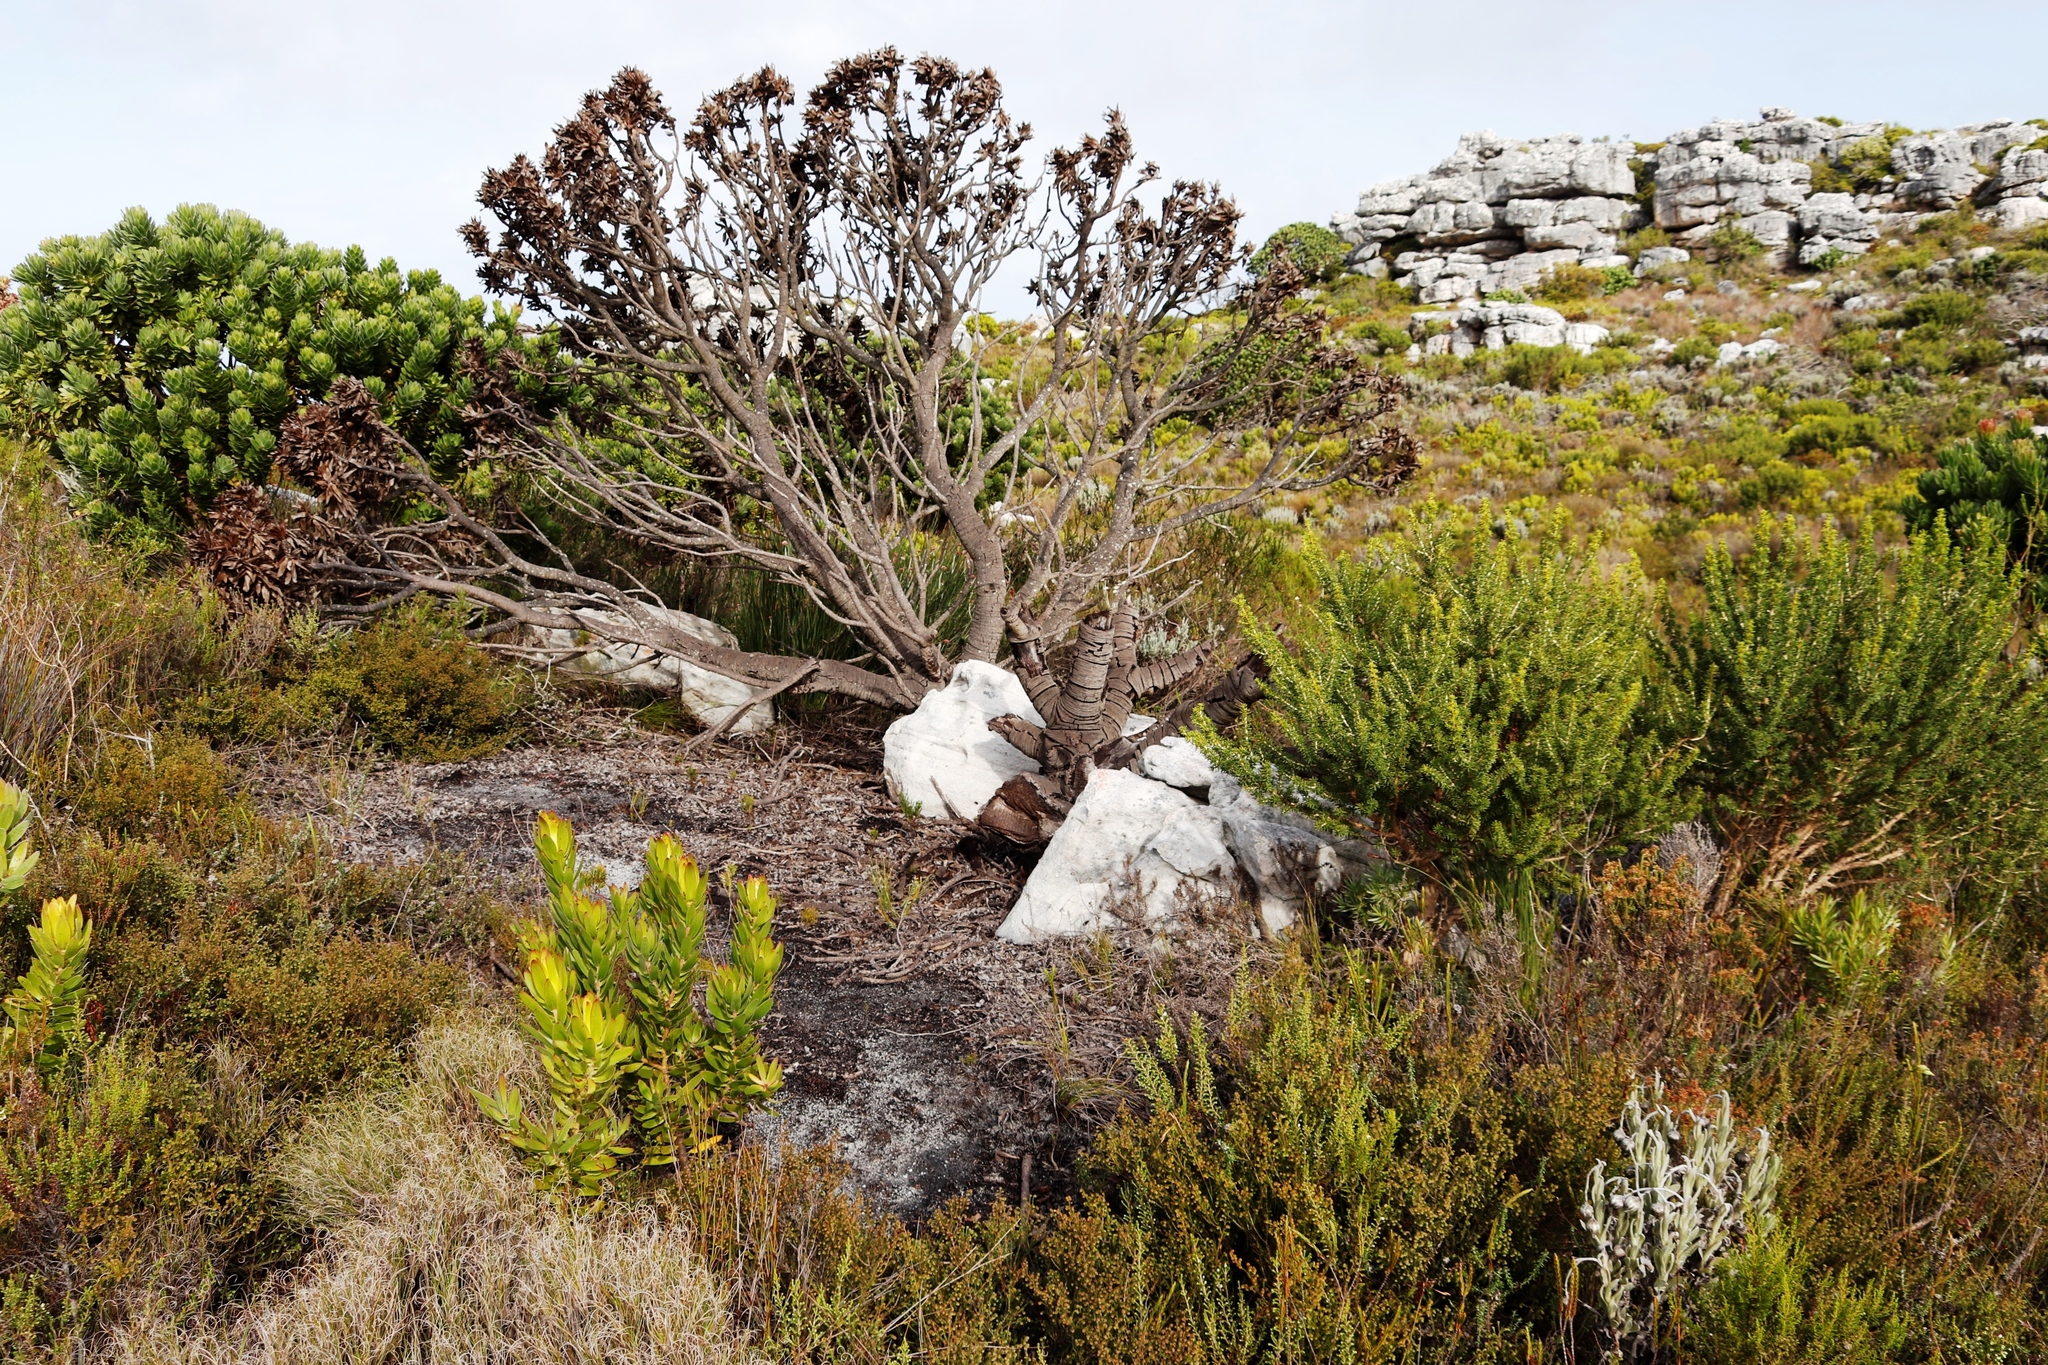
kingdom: Plantae
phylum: Tracheophyta
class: Magnoliopsida
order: Proteales
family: Proteaceae
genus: Leucospermum
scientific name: Leucospermum conocarpodendron
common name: Tree pincushion
